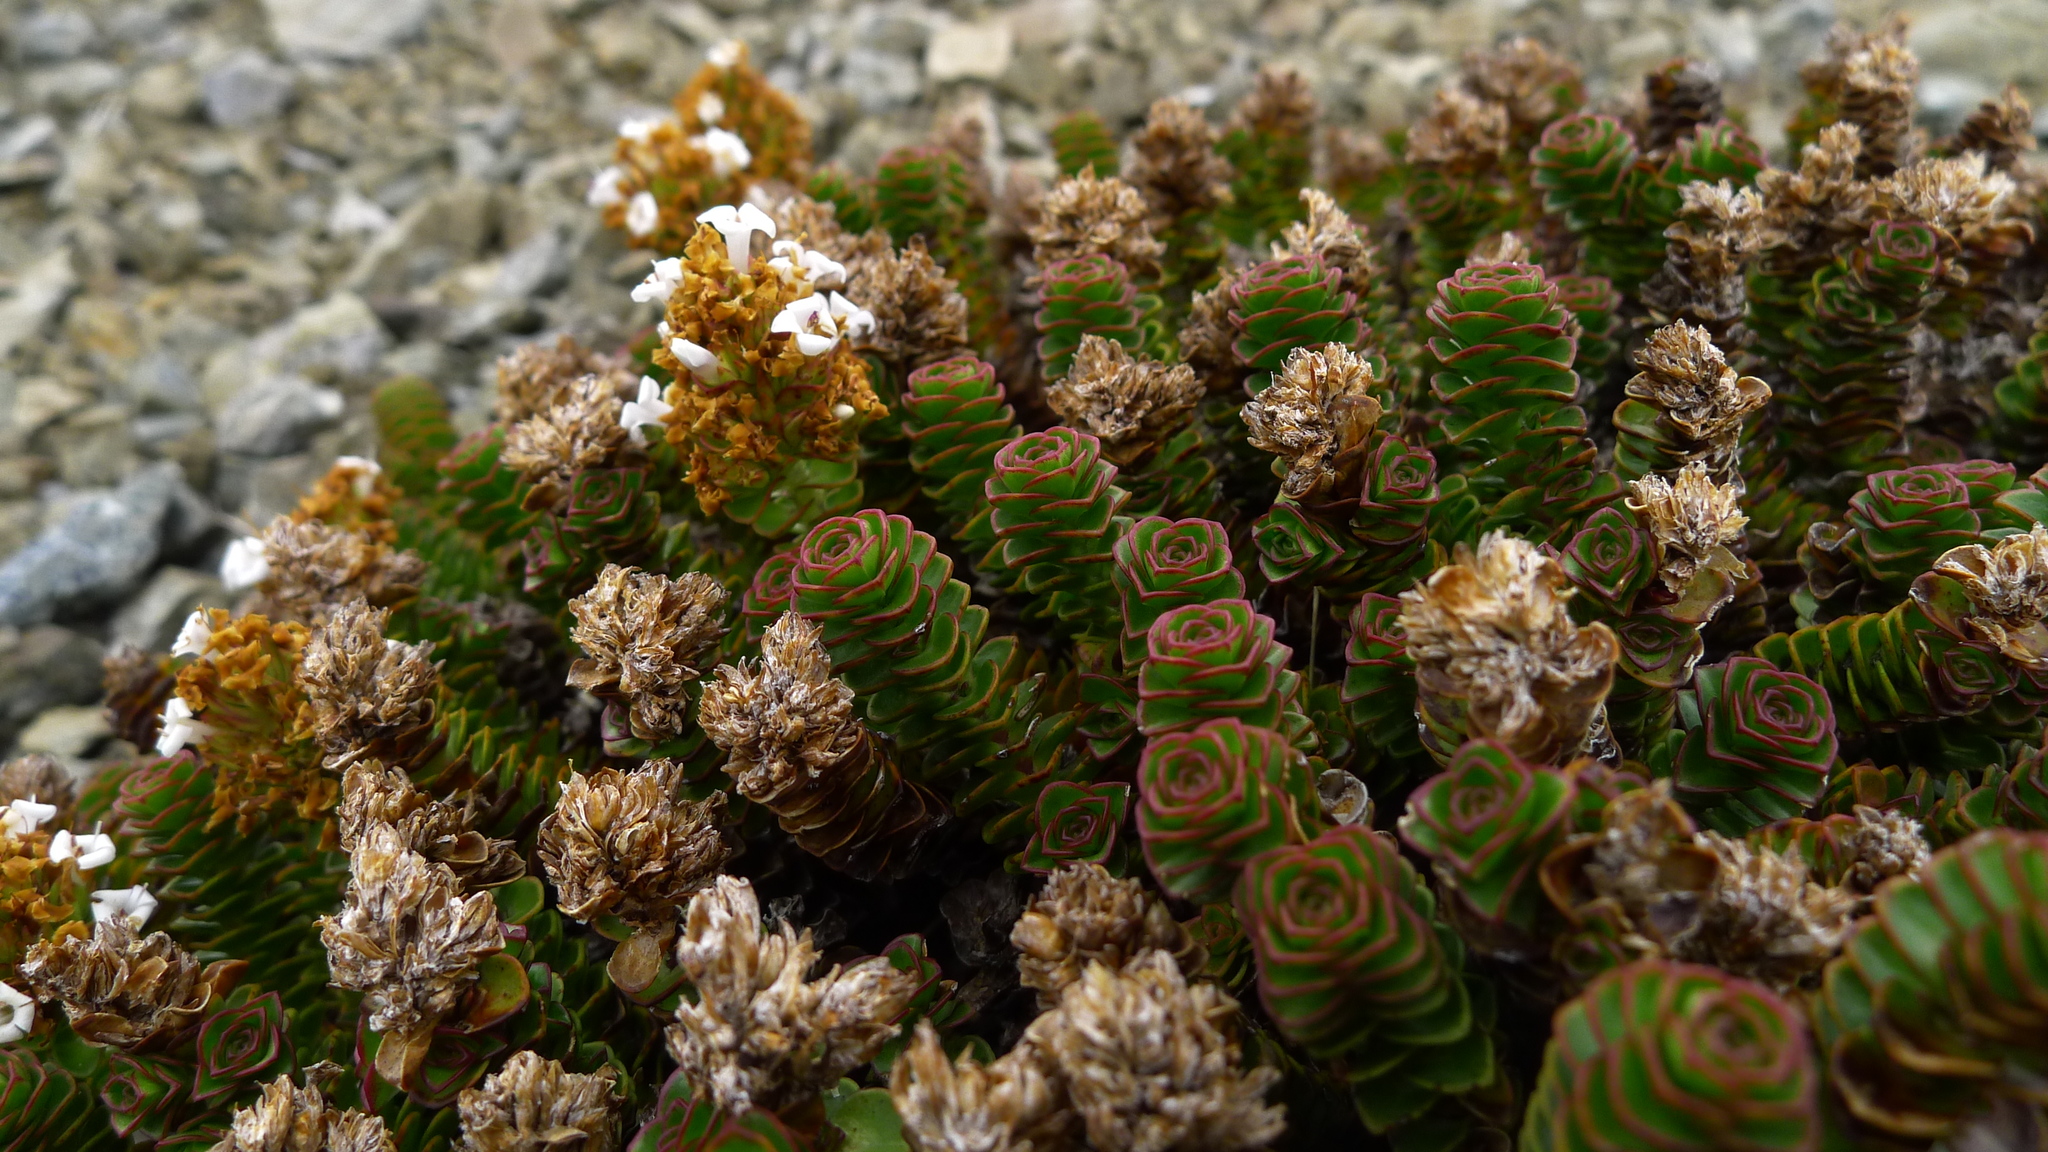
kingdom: Plantae
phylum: Tracheophyta
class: Magnoliopsida
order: Lamiales
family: Plantaginaceae
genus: Veronica
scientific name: Veronica haastii
